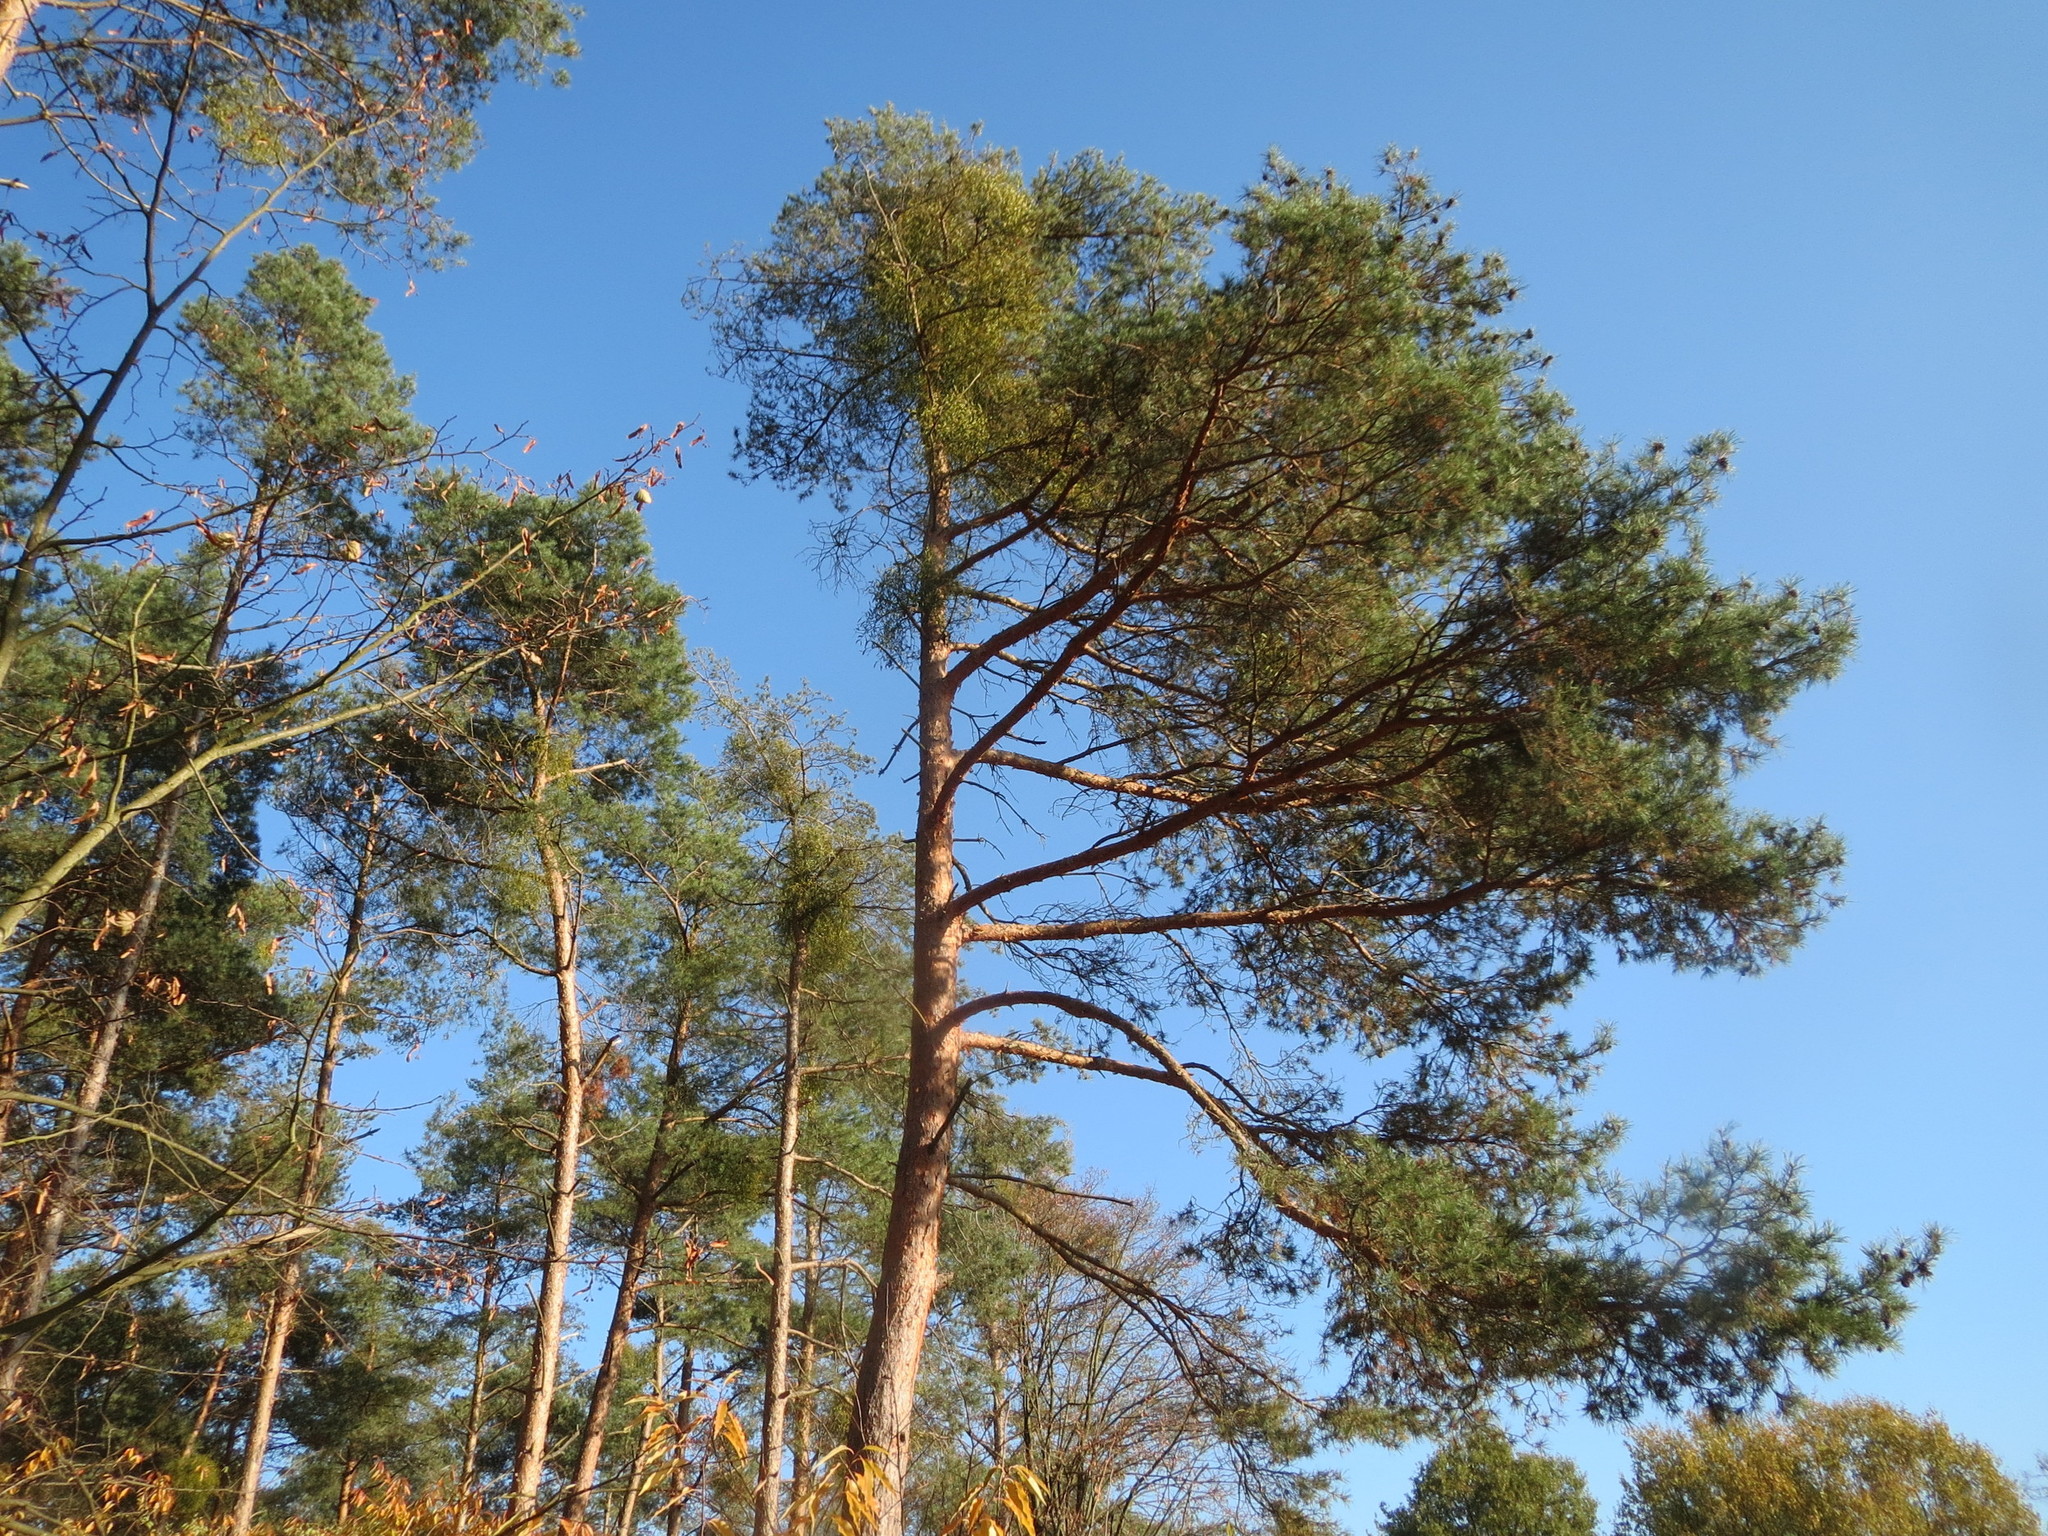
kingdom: Plantae
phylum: Tracheophyta
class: Pinopsida
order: Pinales
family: Pinaceae
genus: Pinus
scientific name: Pinus sylvestris
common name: Scots pine
